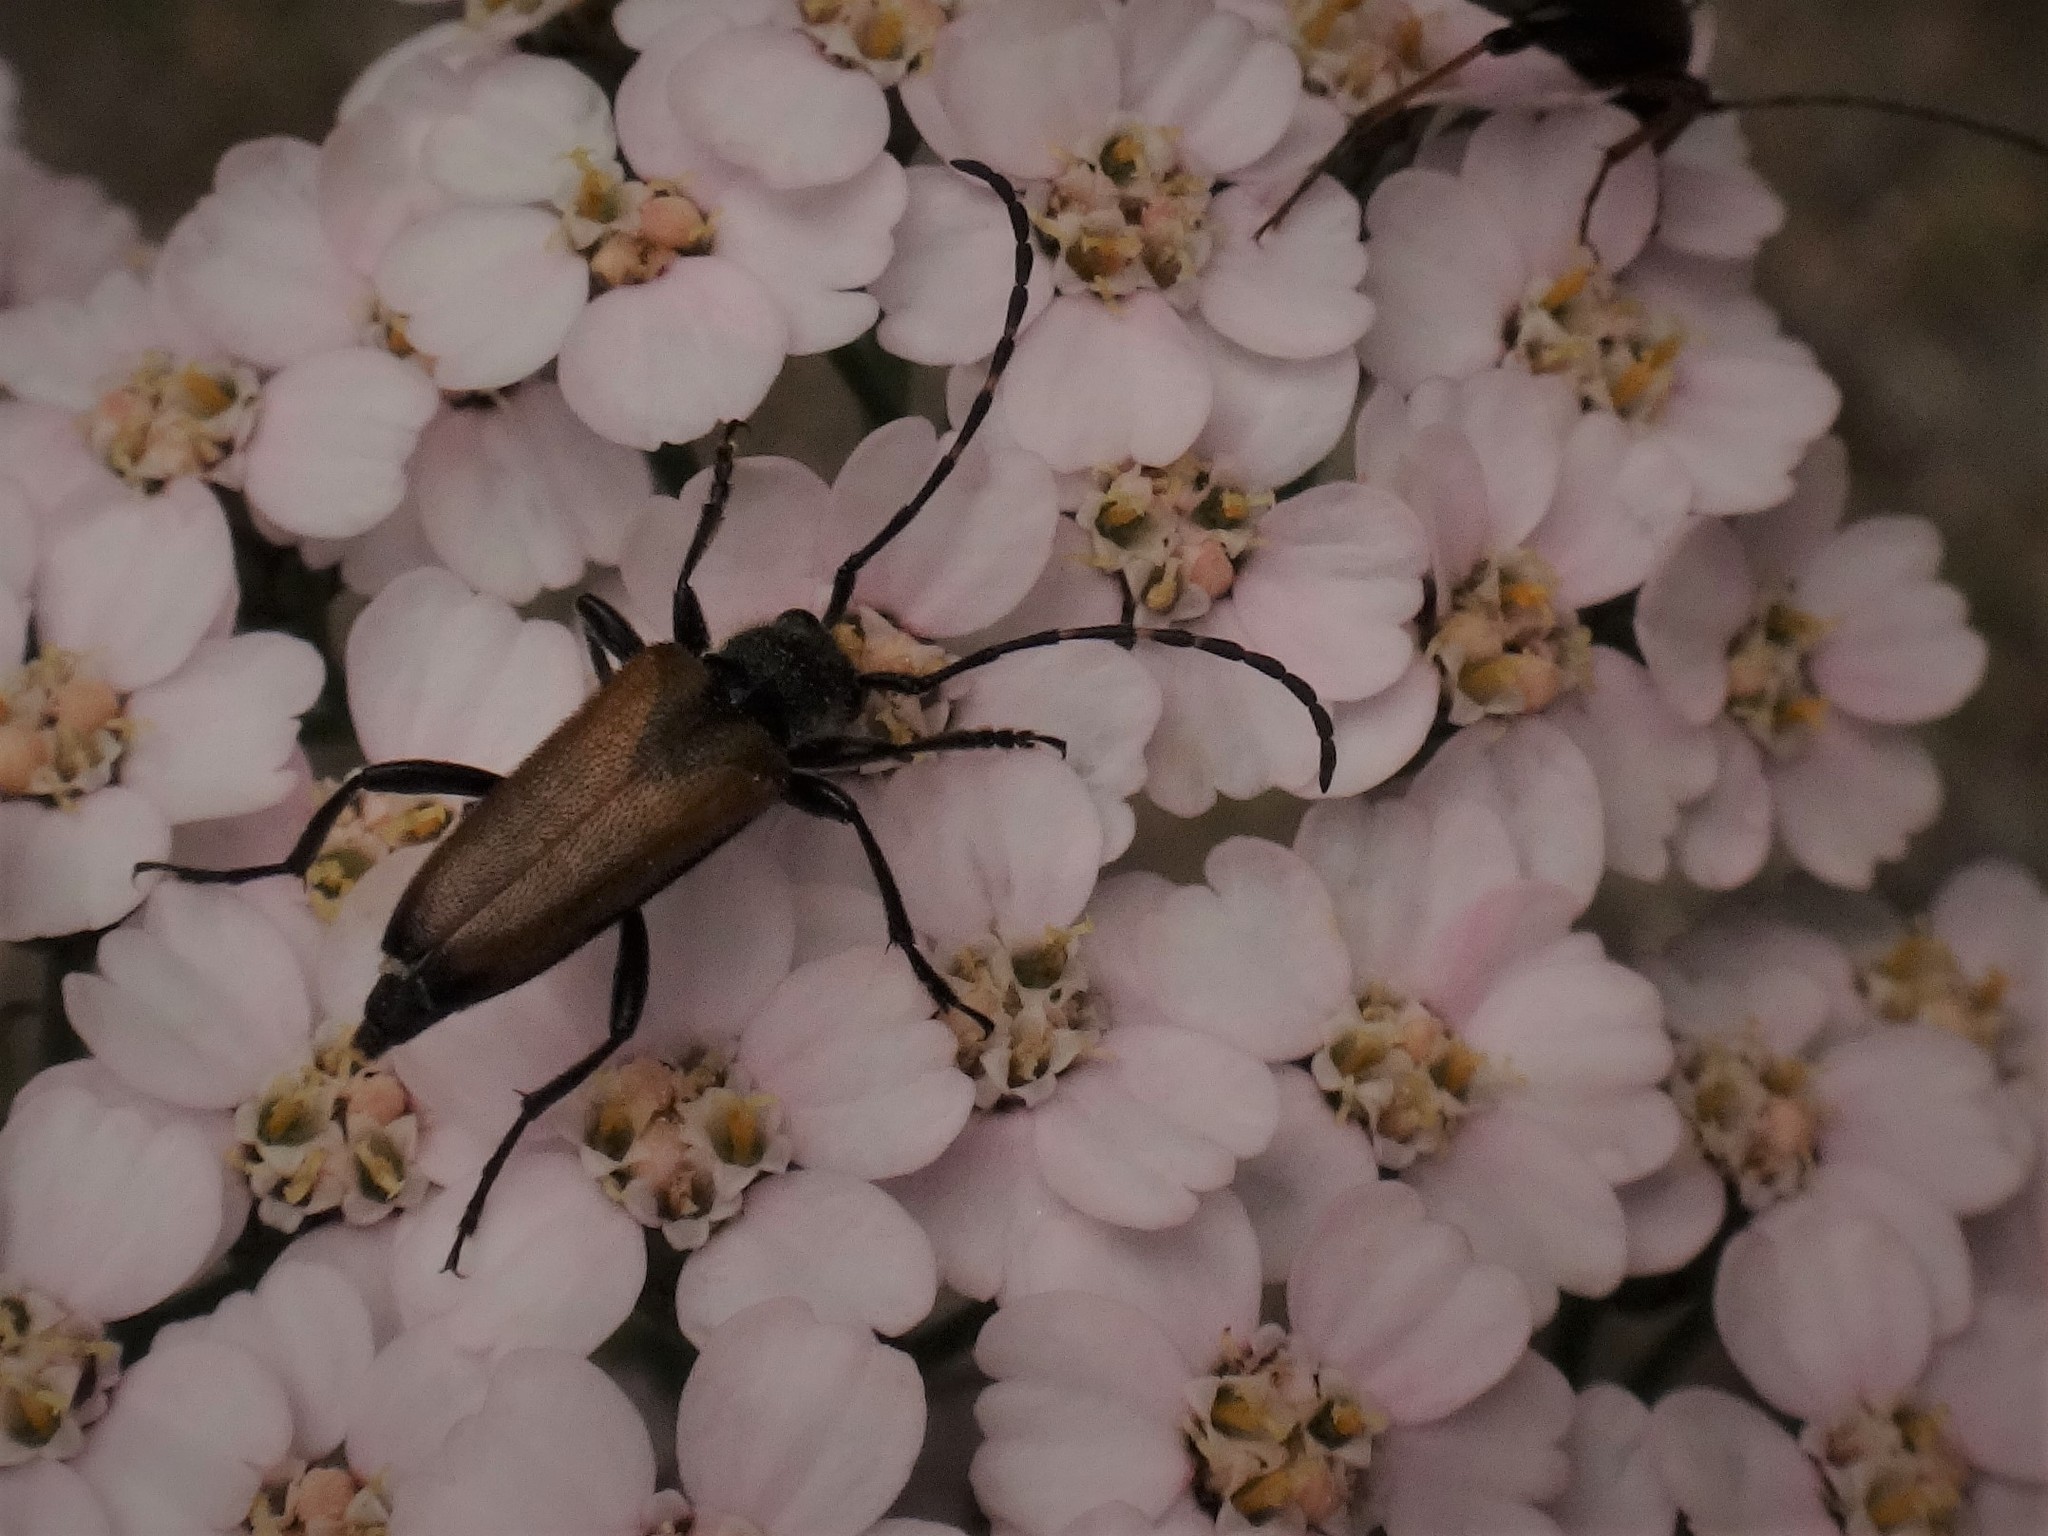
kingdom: Animalia
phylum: Arthropoda
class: Insecta
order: Coleoptera
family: Cerambycidae
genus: Paracorymbia
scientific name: Paracorymbia maculicornis
